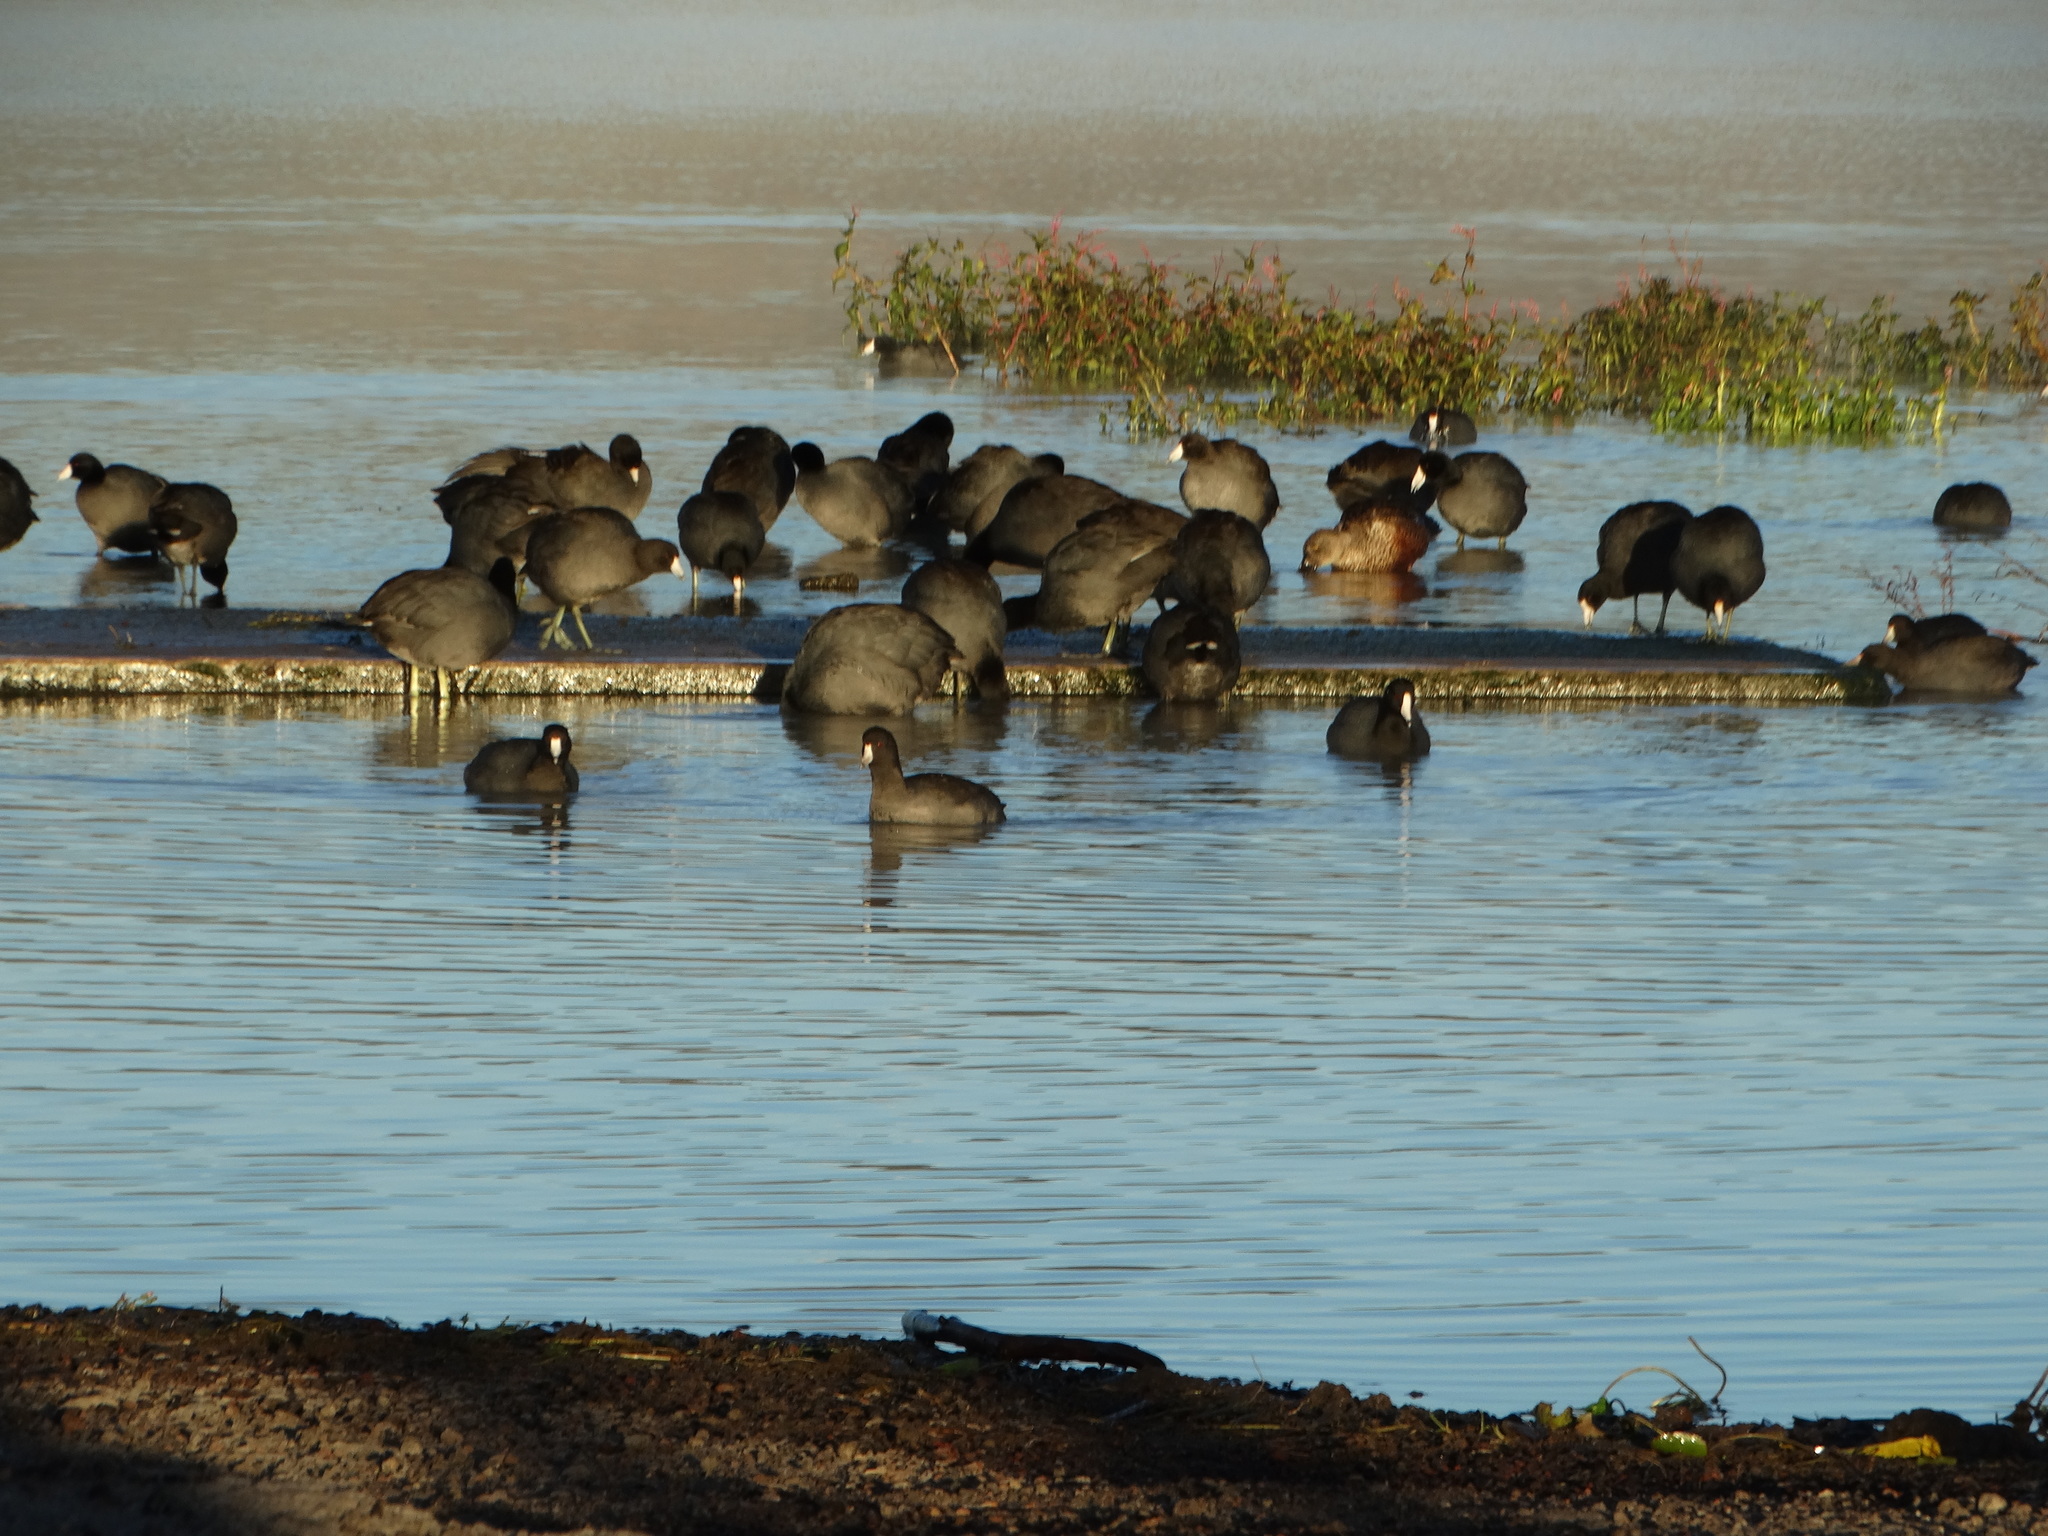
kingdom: Animalia
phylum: Chordata
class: Aves
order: Gruiformes
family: Rallidae
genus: Fulica
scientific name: Fulica americana
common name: American coot
